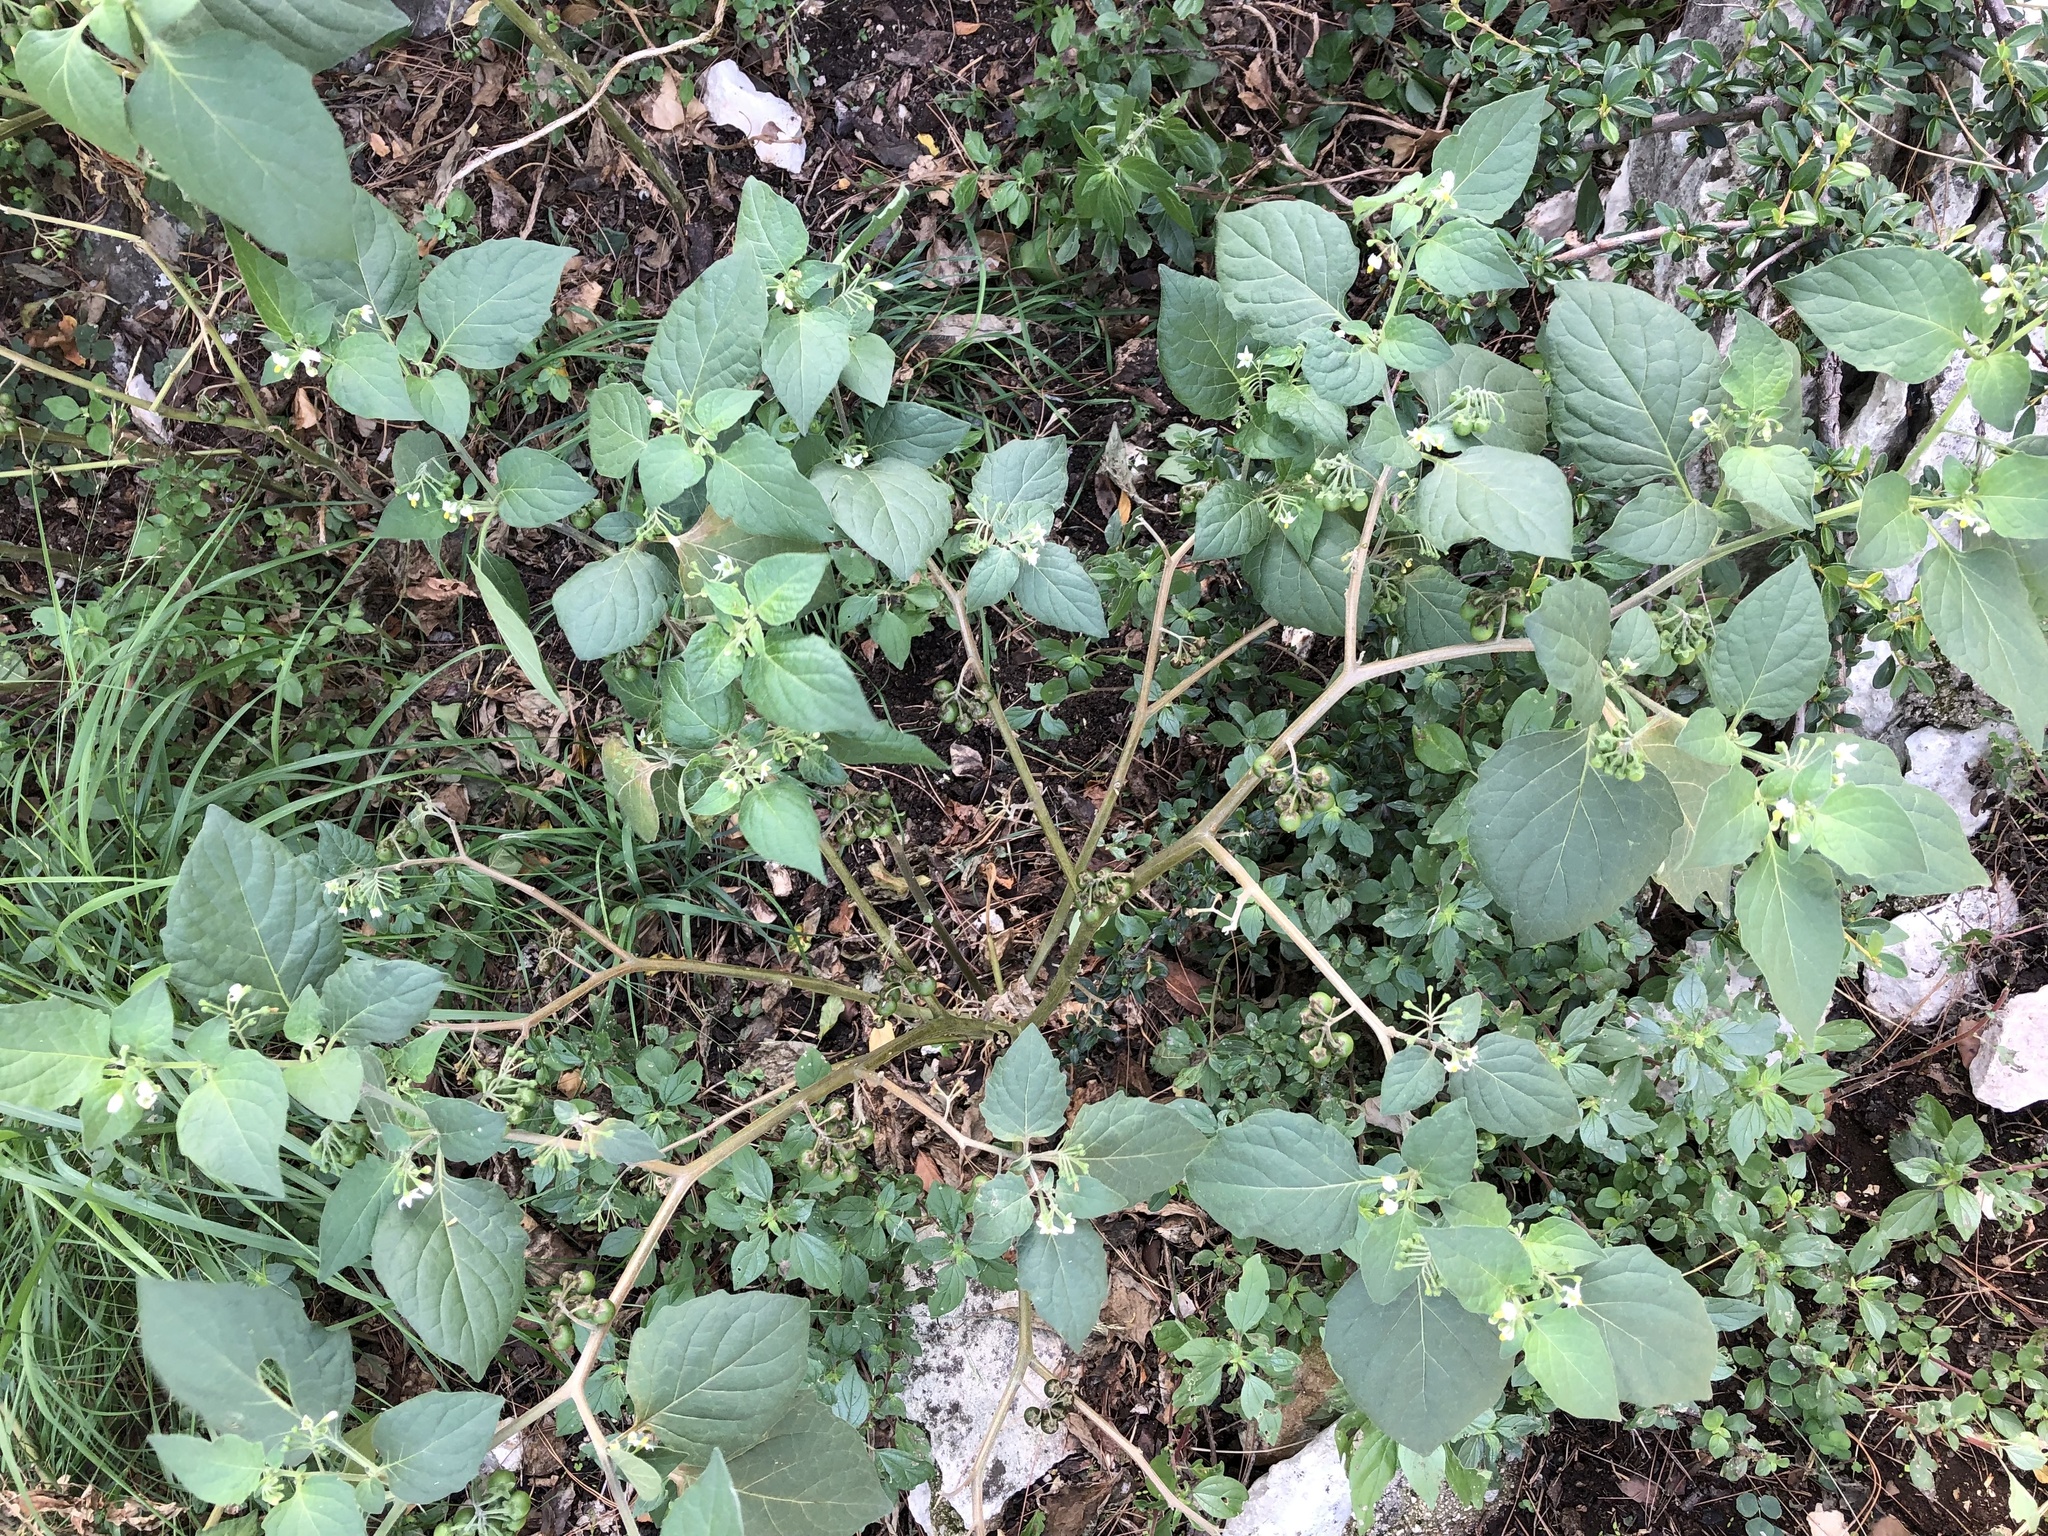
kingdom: Plantae
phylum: Tracheophyta
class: Magnoliopsida
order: Solanales
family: Solanaceae
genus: Solanum
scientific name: Solanum nigrum
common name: Black nightshade
